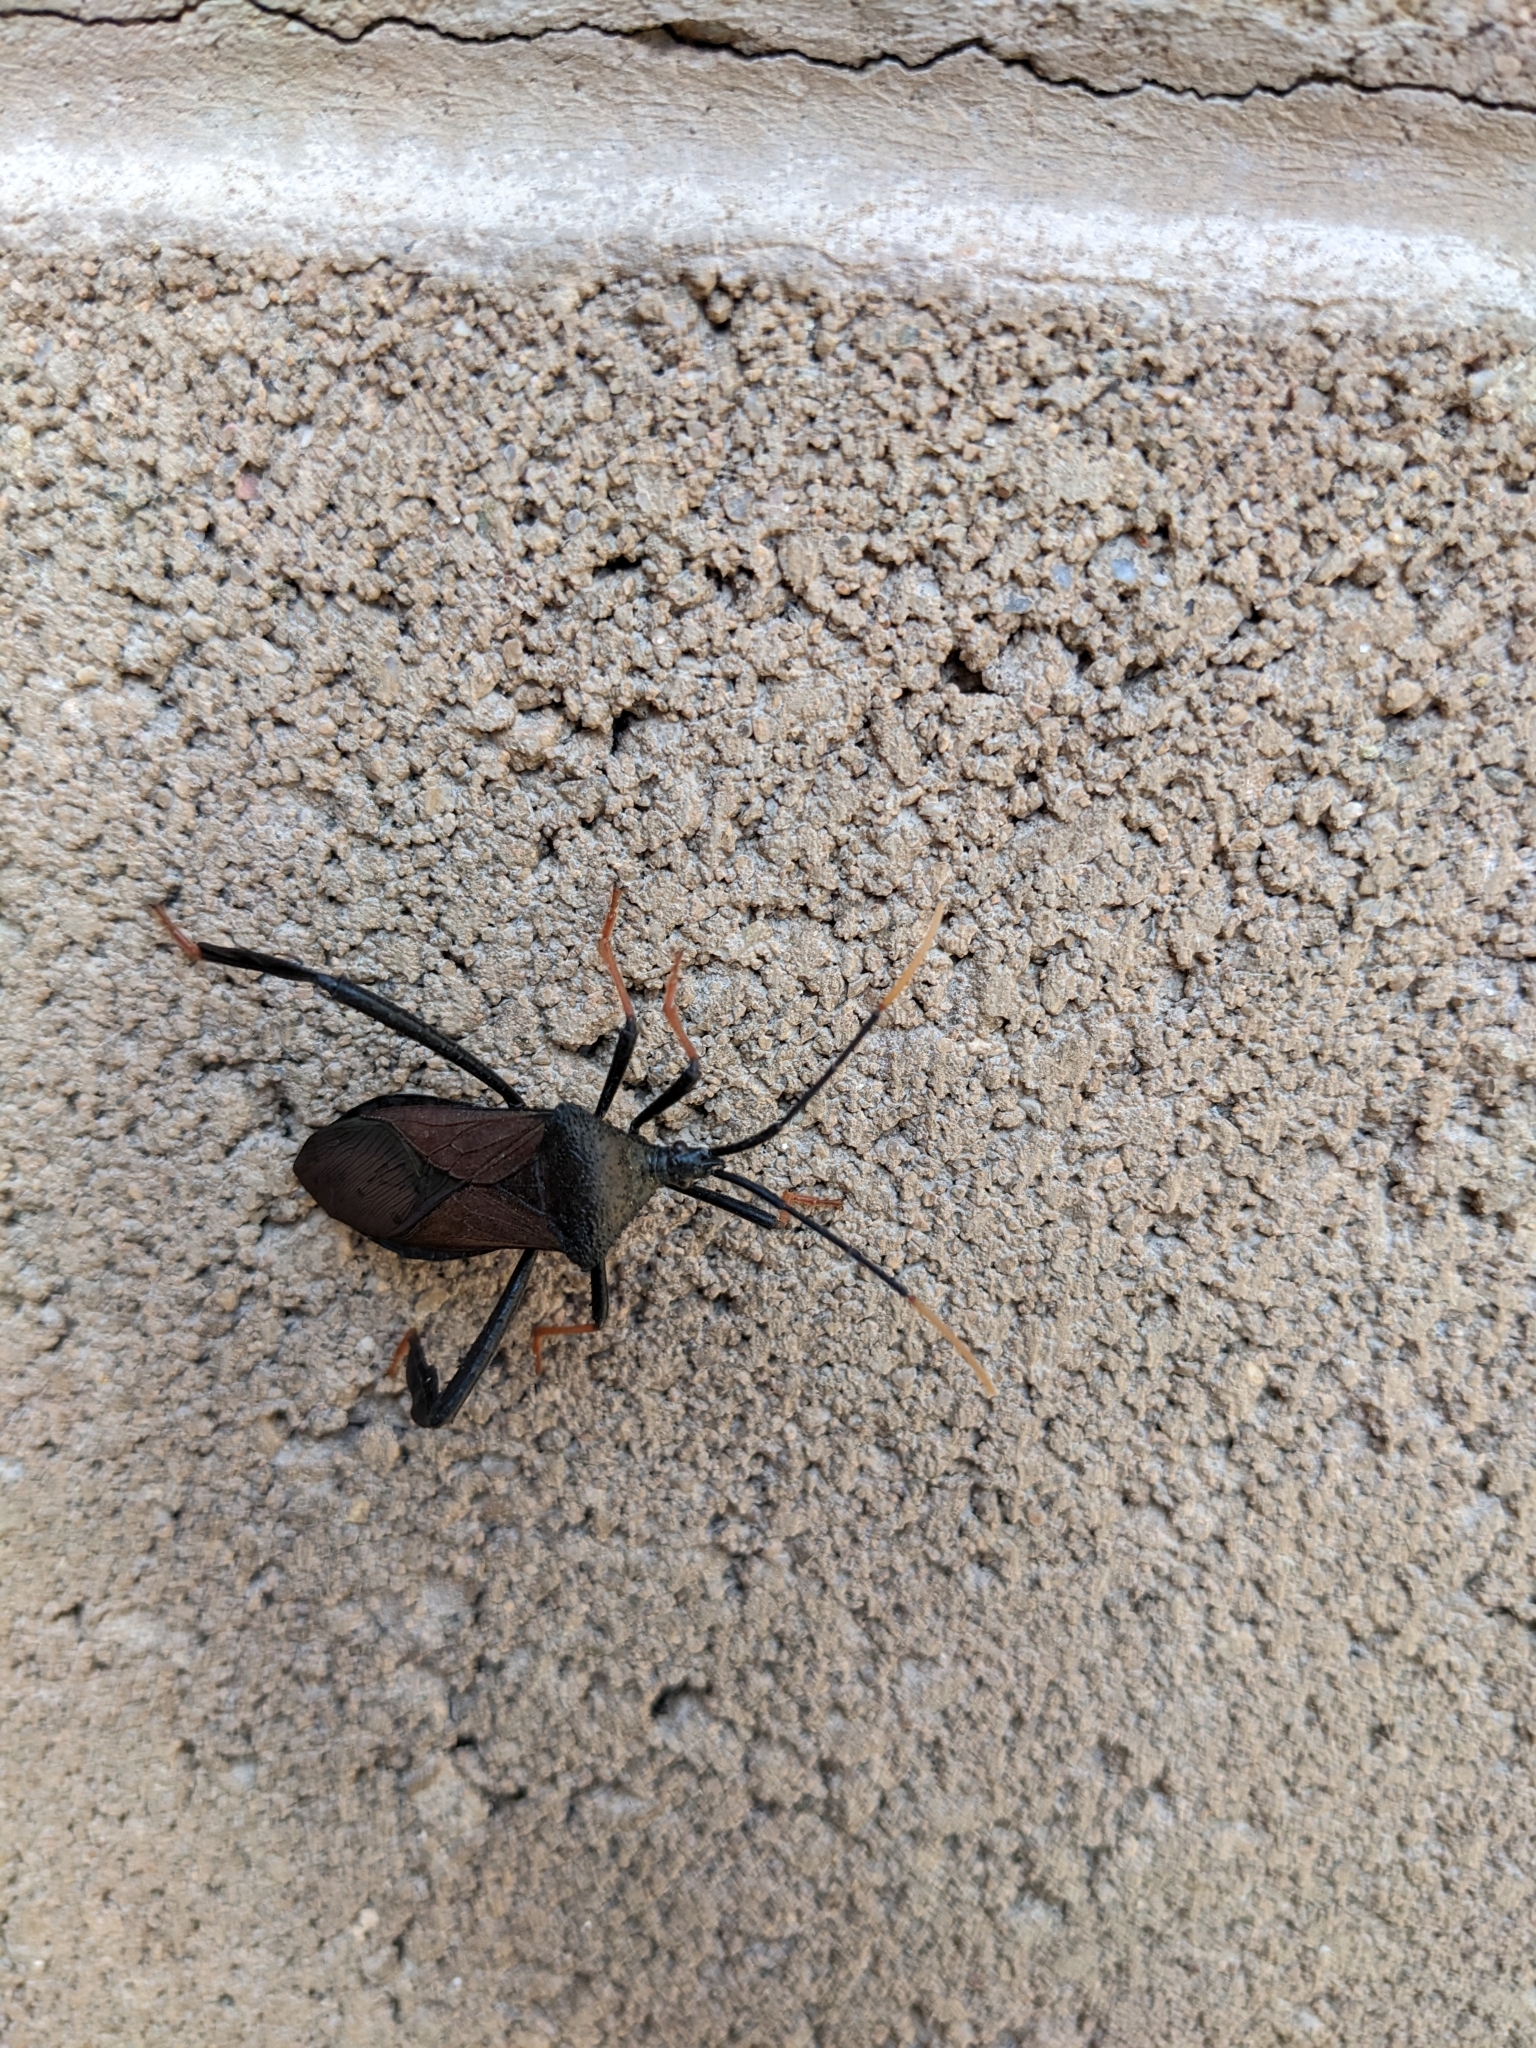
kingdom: Animalia
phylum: Arthropoda
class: Insecta
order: Hemiptera
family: Coreidae
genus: Acanthocephala
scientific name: Acanthocephala thomasi
